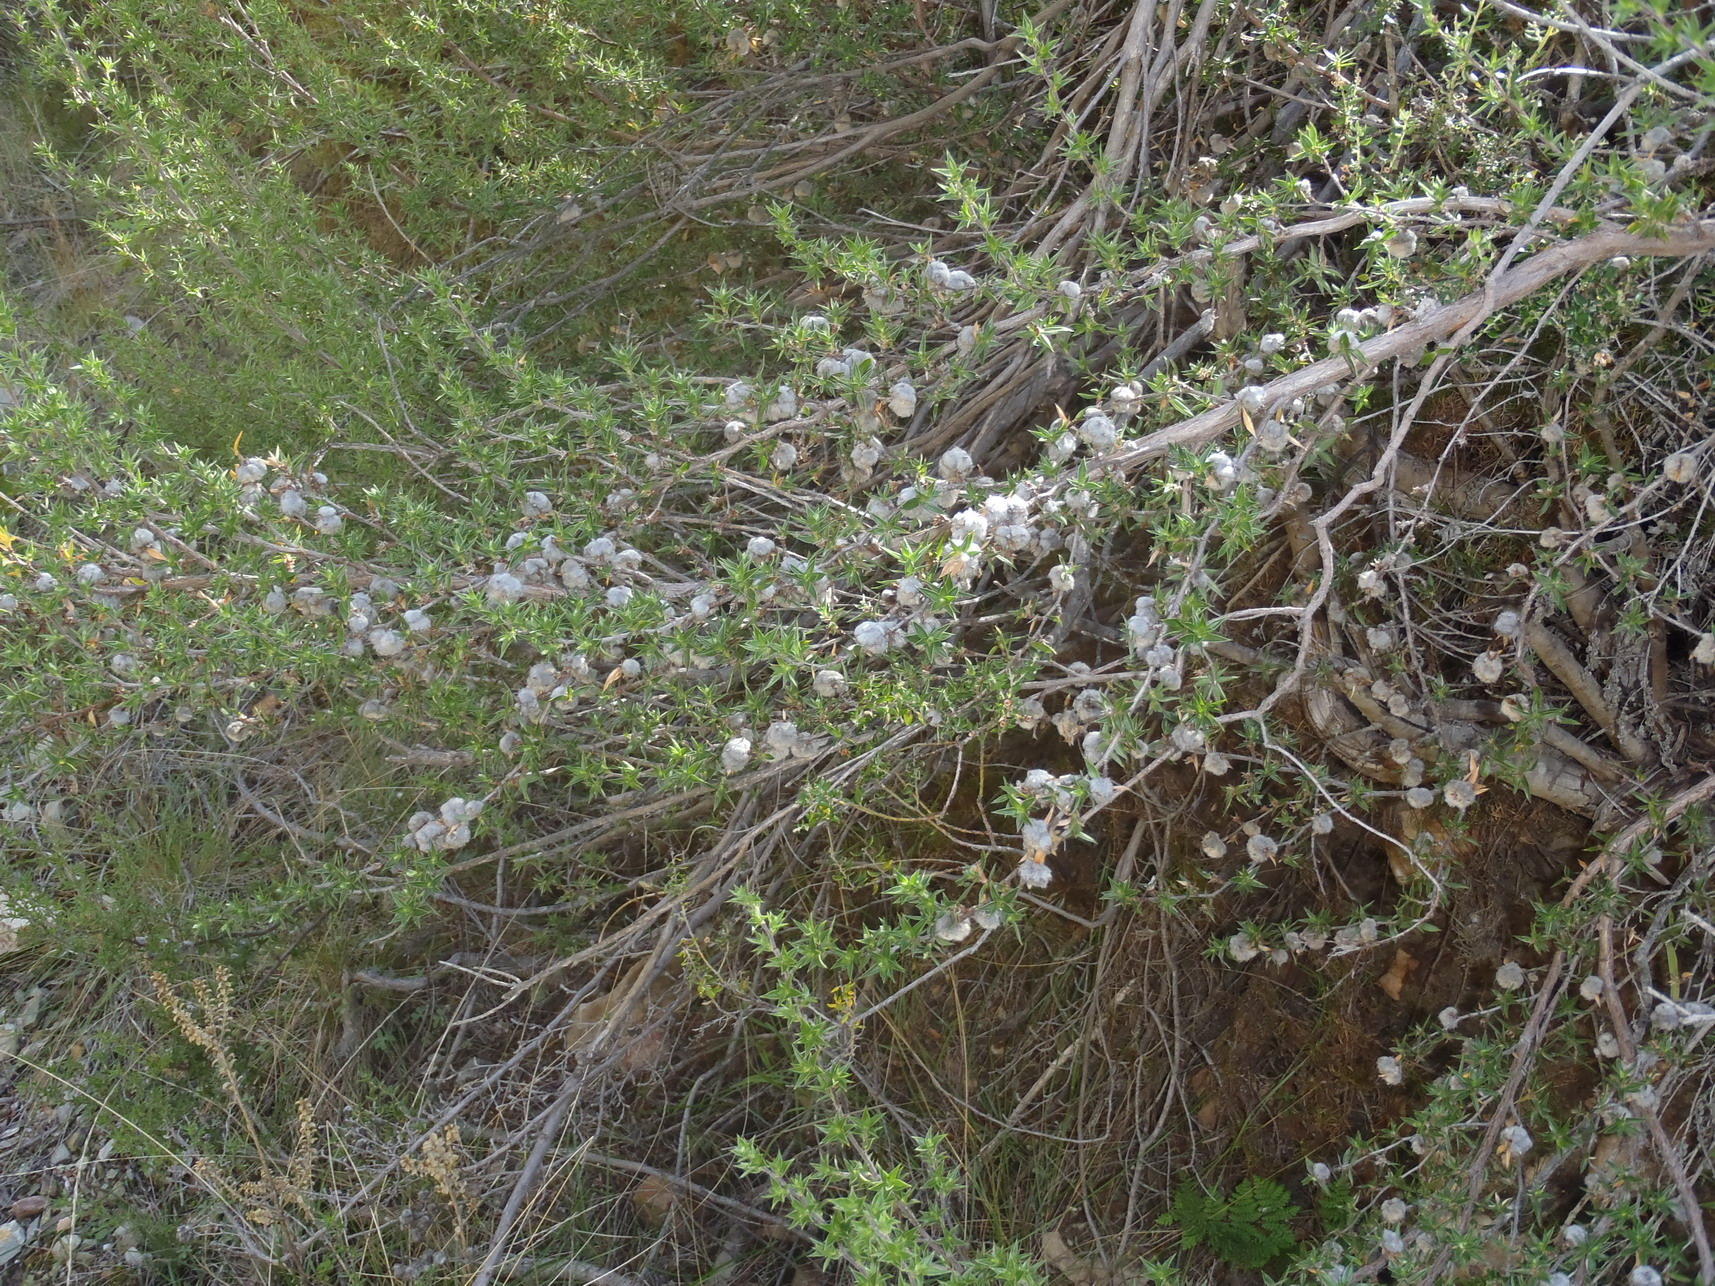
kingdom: Plantae
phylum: Tracheophyta
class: Magnoliopsida
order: Rosales
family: Rosaceae
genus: Cliffortia
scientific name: Cliffortia ruscifolia
